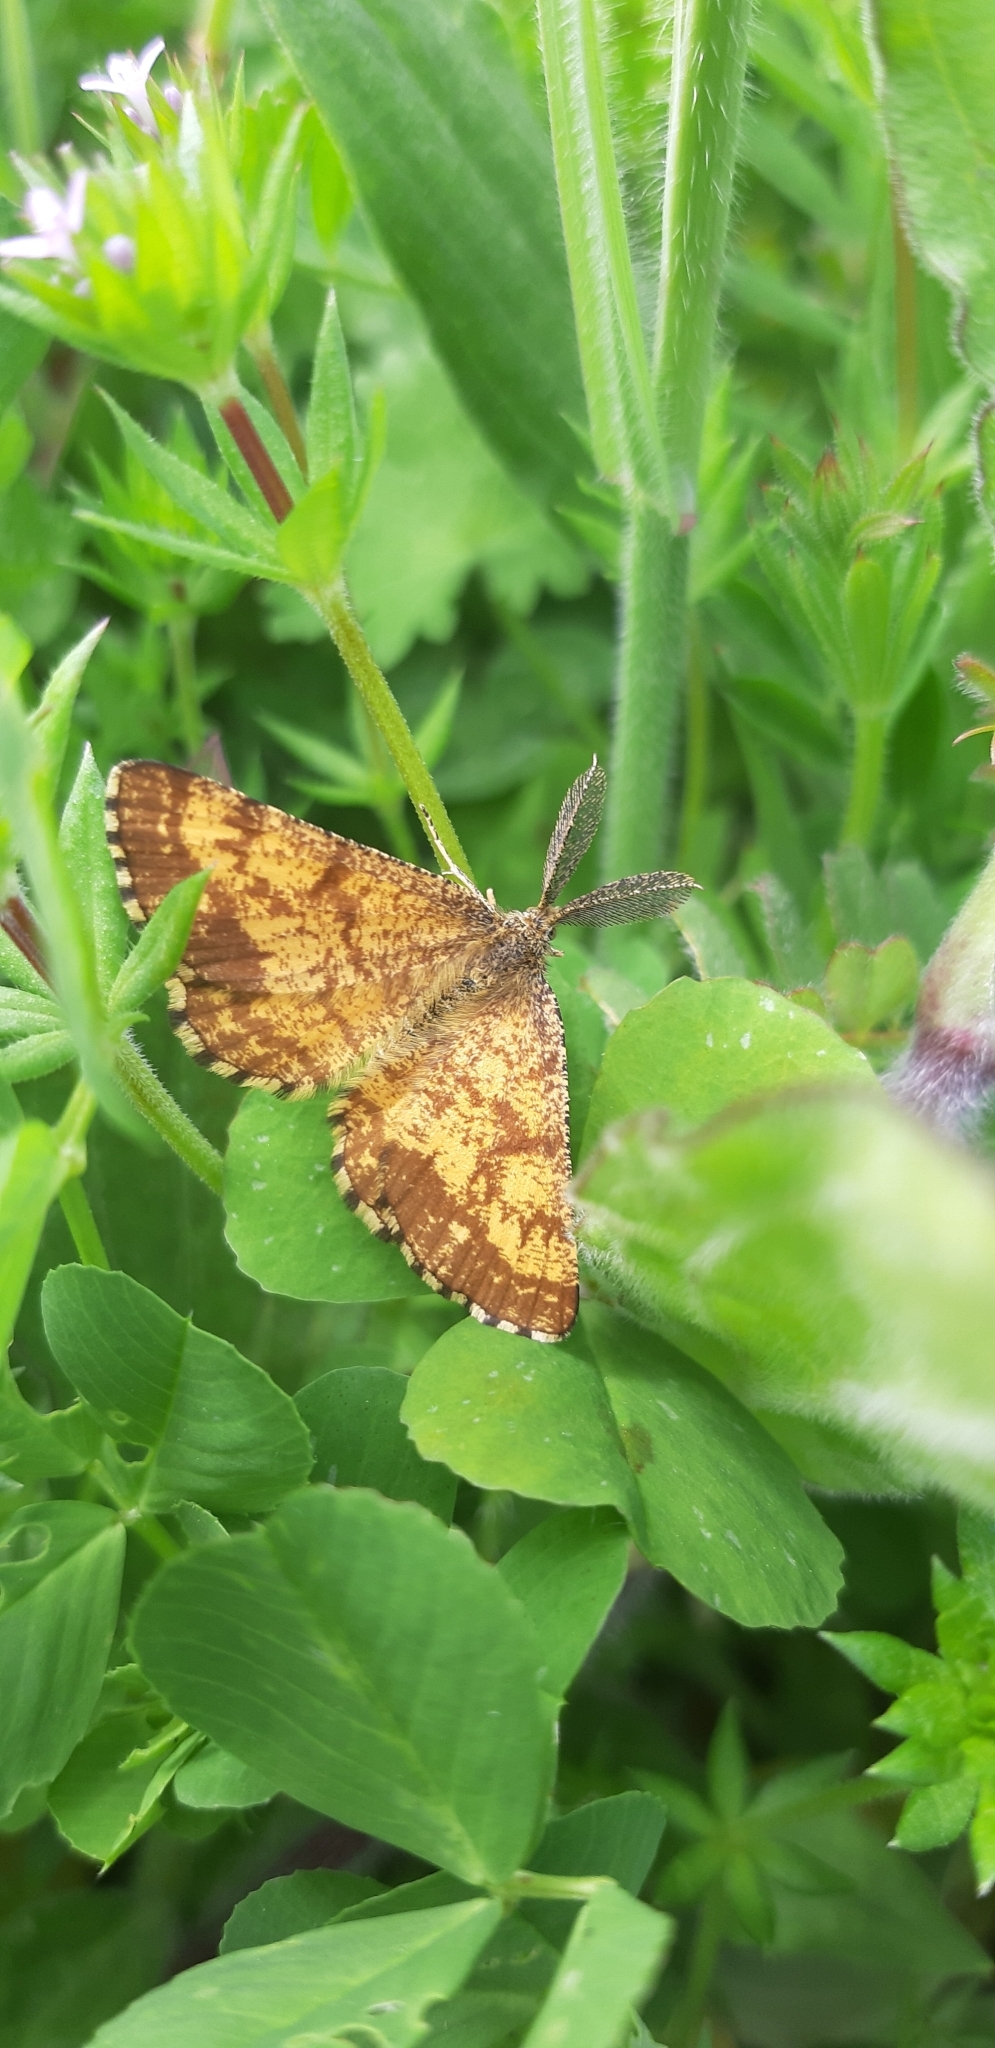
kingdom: Animalia
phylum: Arthropoda
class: Insecta
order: Lepidoptera
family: Geometridae
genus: Ematurga
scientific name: Ematurga atomaria
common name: Common heath
